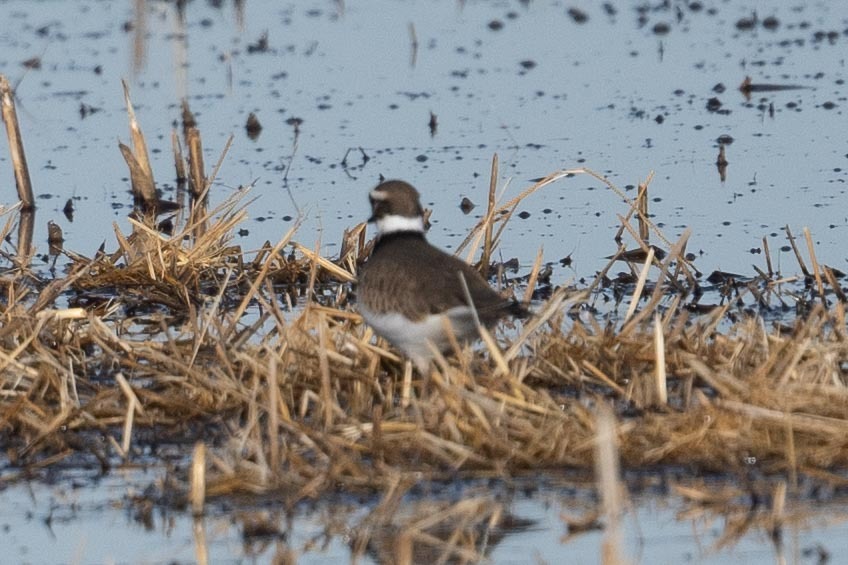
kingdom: Animalia
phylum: Chordata
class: Aves
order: Charadriiformes
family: Charadriidae
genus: Charadrius
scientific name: Charadrius vociferus
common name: Killdeer
